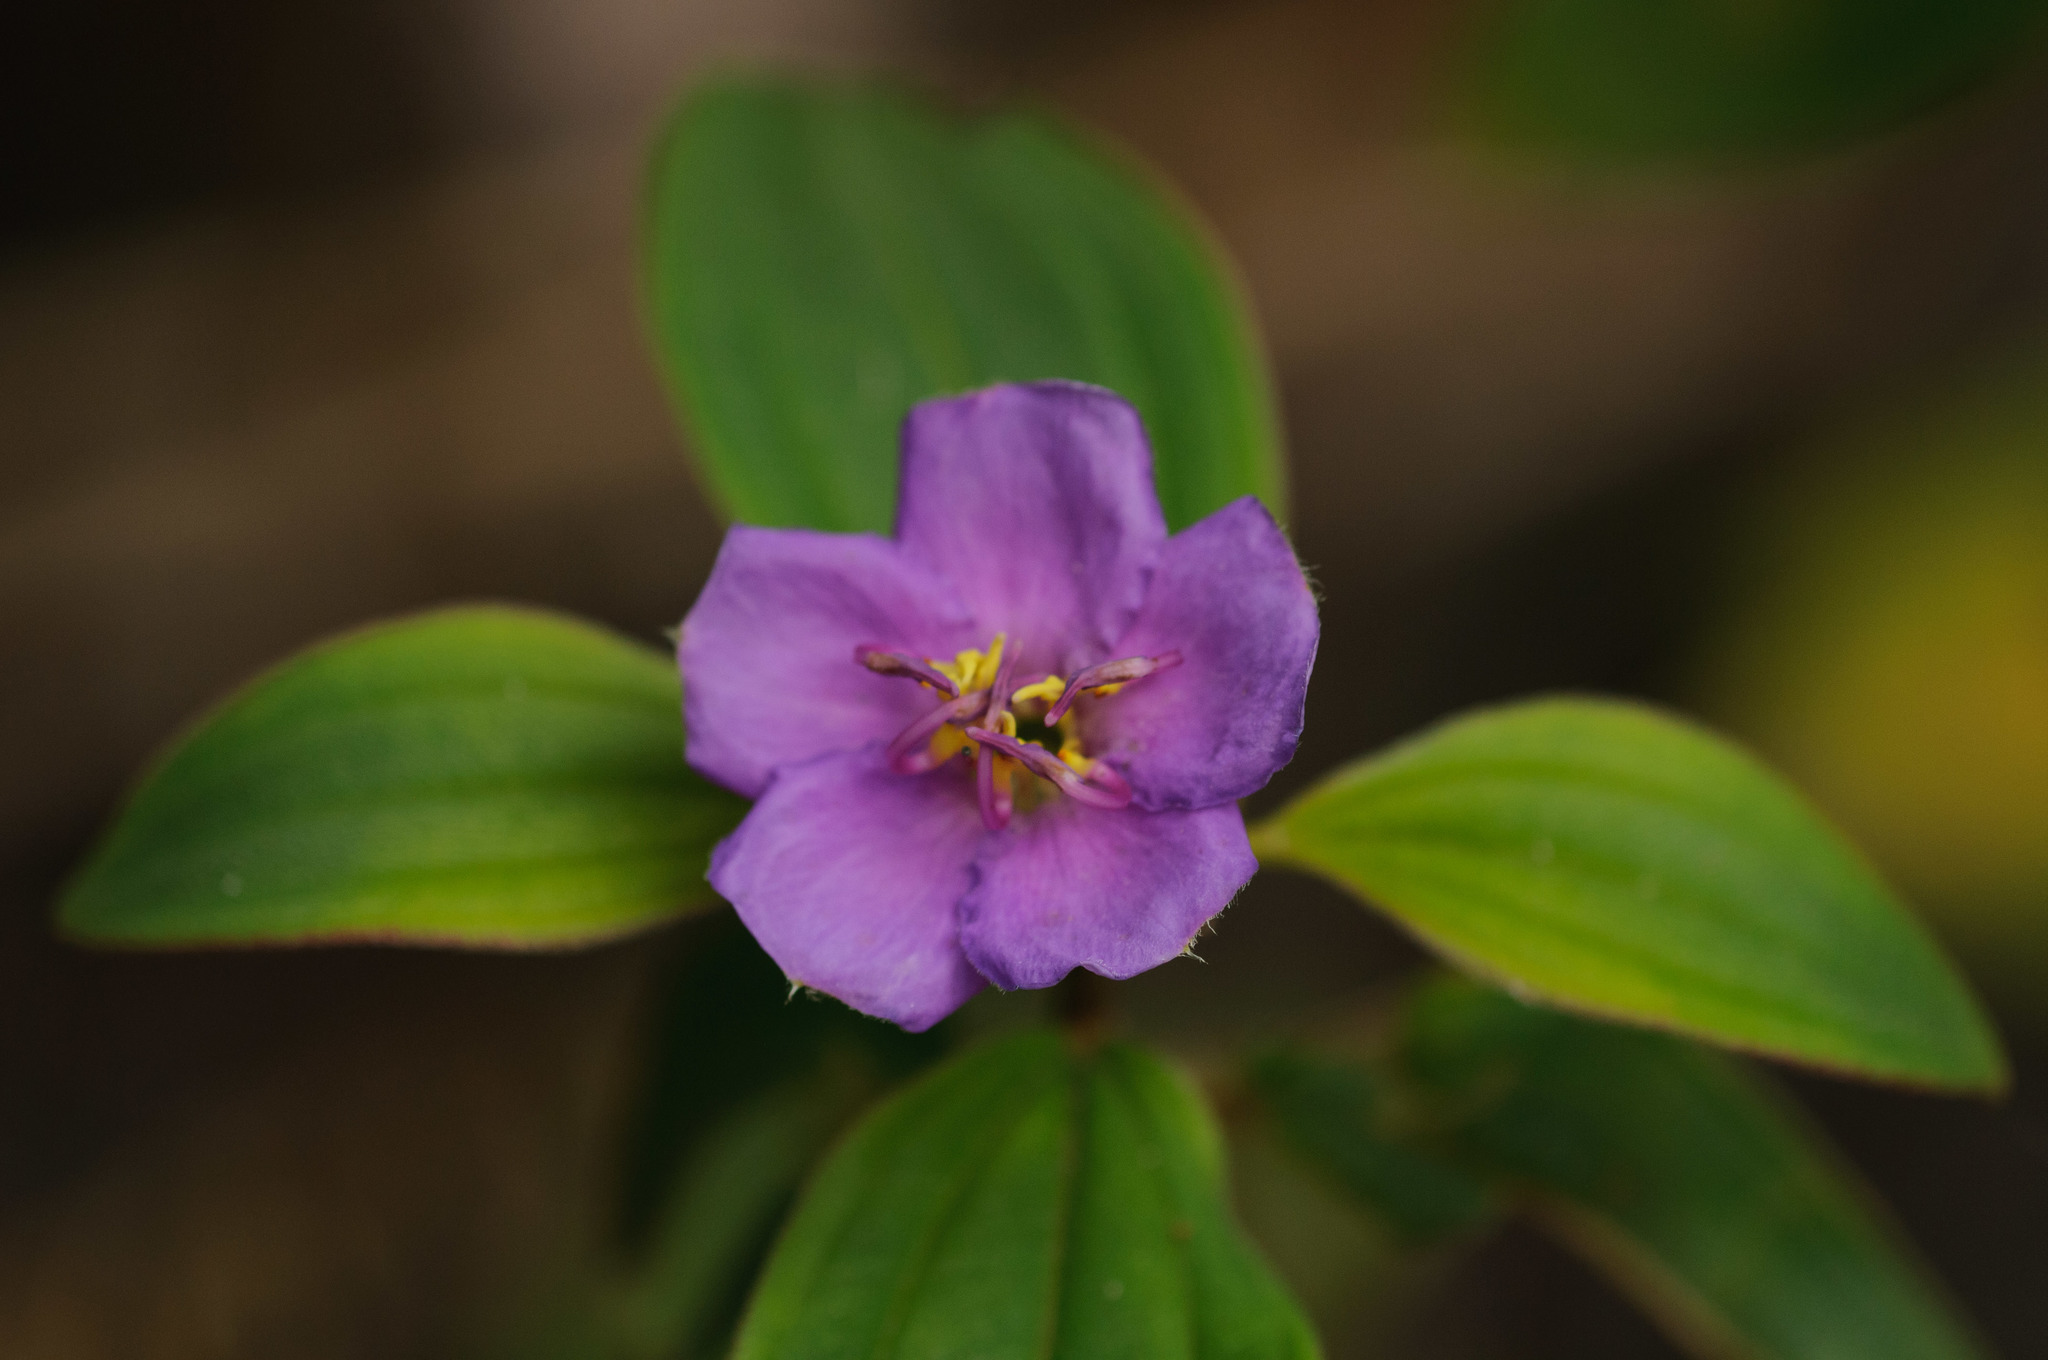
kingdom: Plantae
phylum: Tracheophyta
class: Magnoliopsida
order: Myrtales
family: Melastomataceae
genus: Melastoma
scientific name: Melastoma malabathricum
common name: Indian-rhododendron
